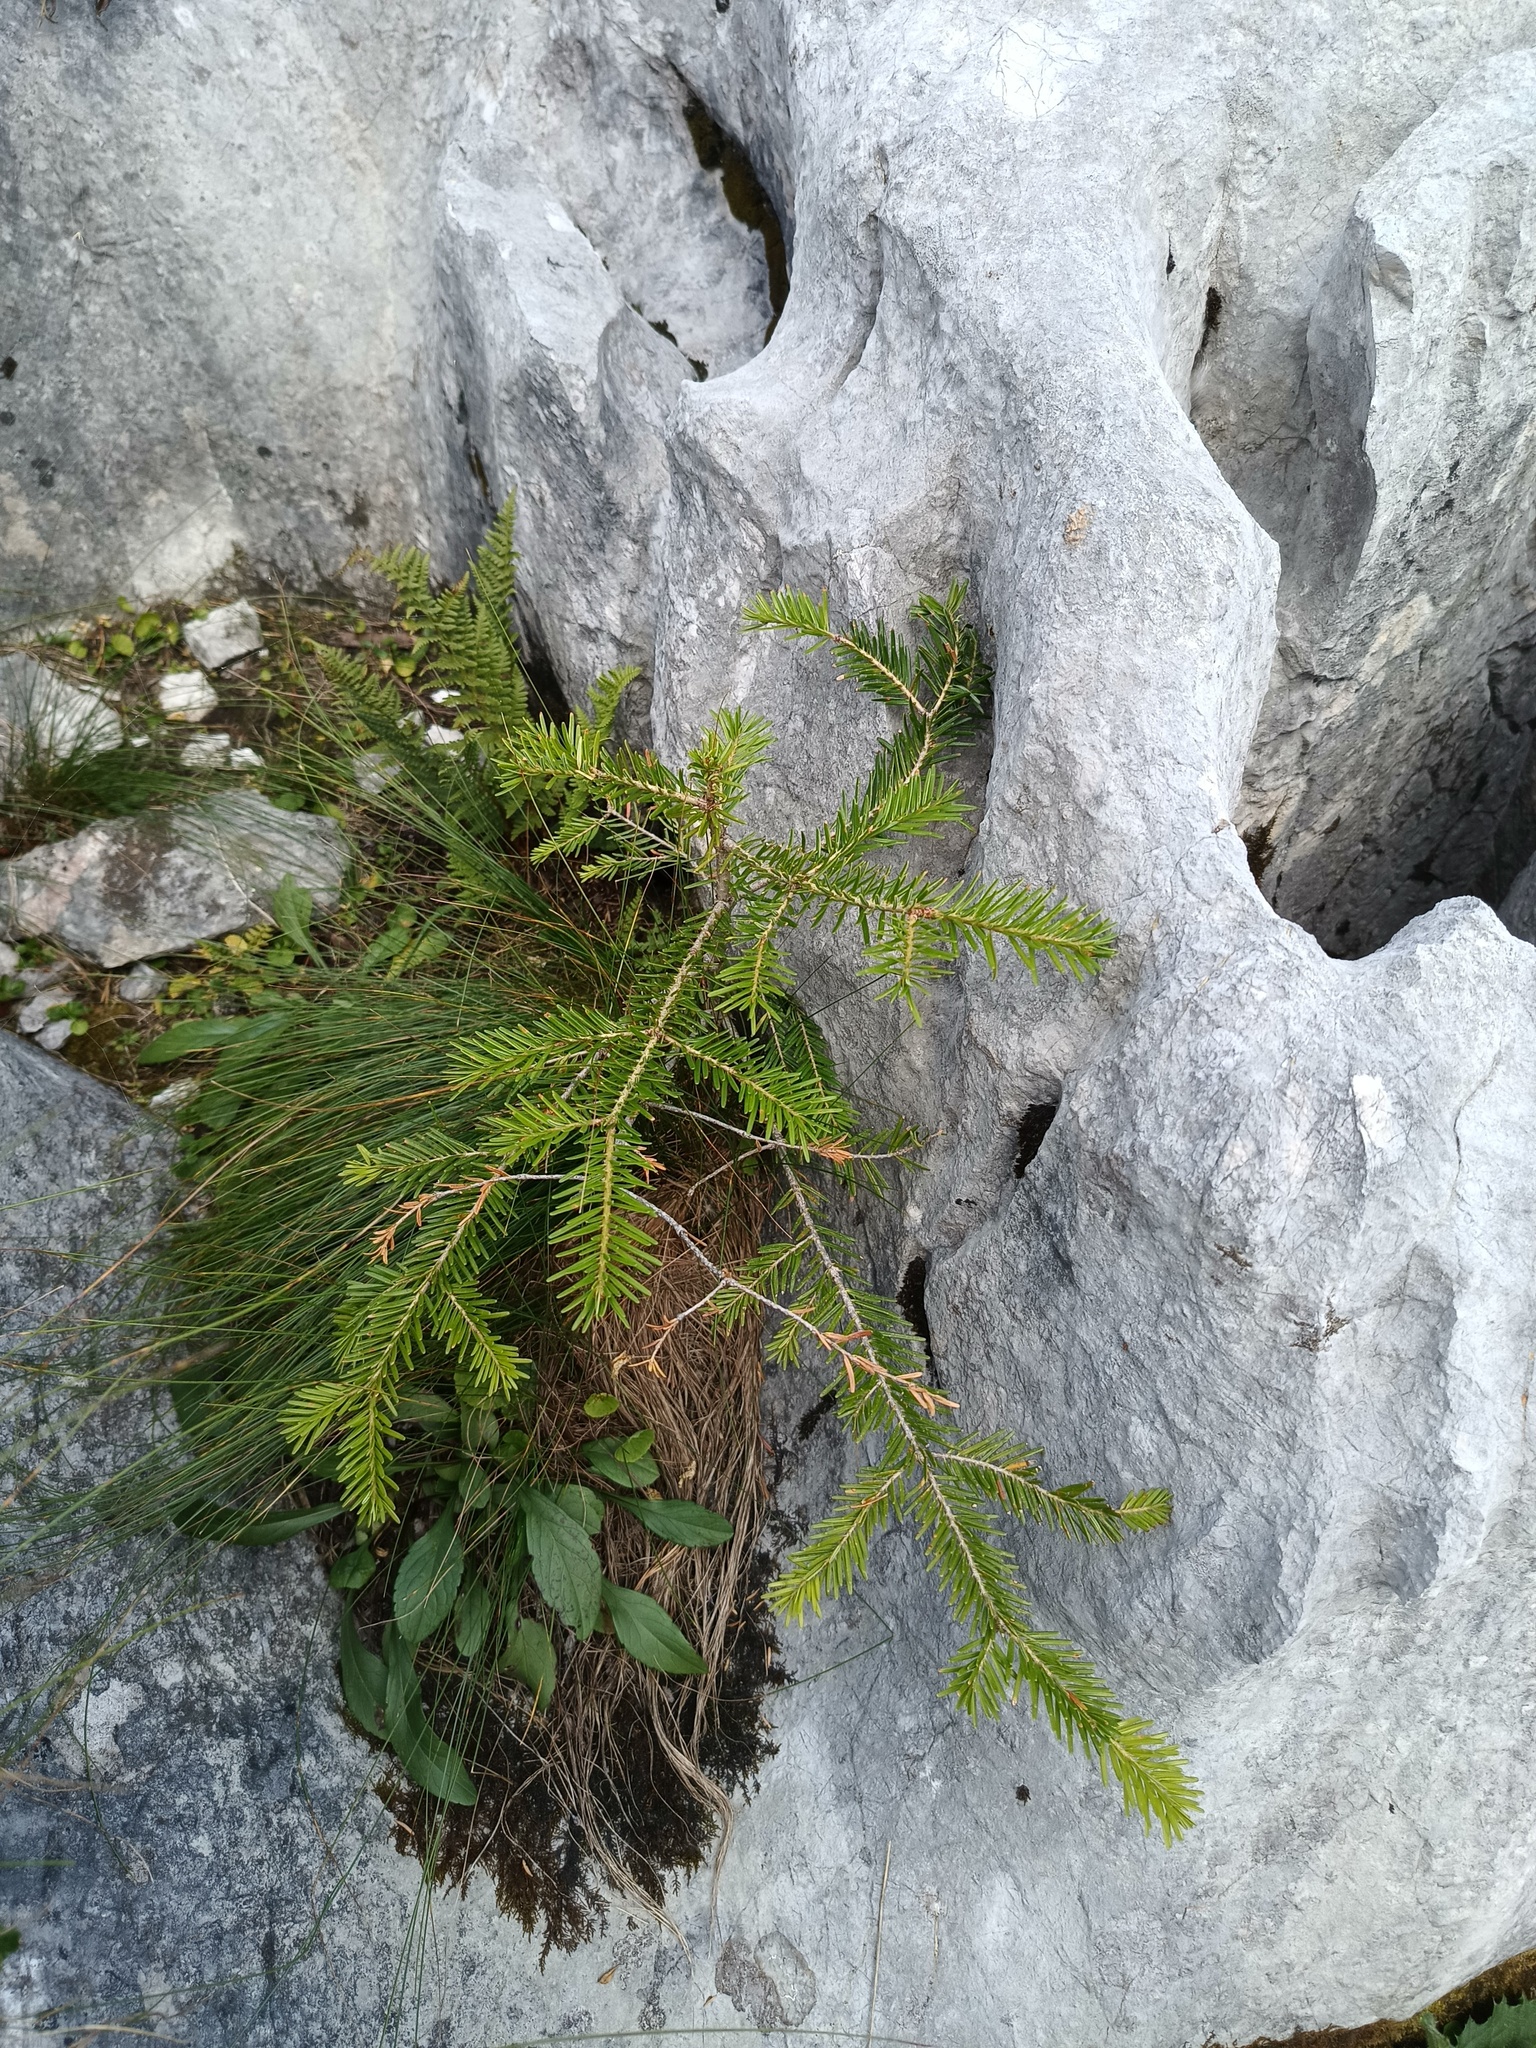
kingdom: Plantae
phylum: Tracheophyta
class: Pinopsida
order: Pinales
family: Pinaceae
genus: Abies
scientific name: Abies alba
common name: Silver fir
